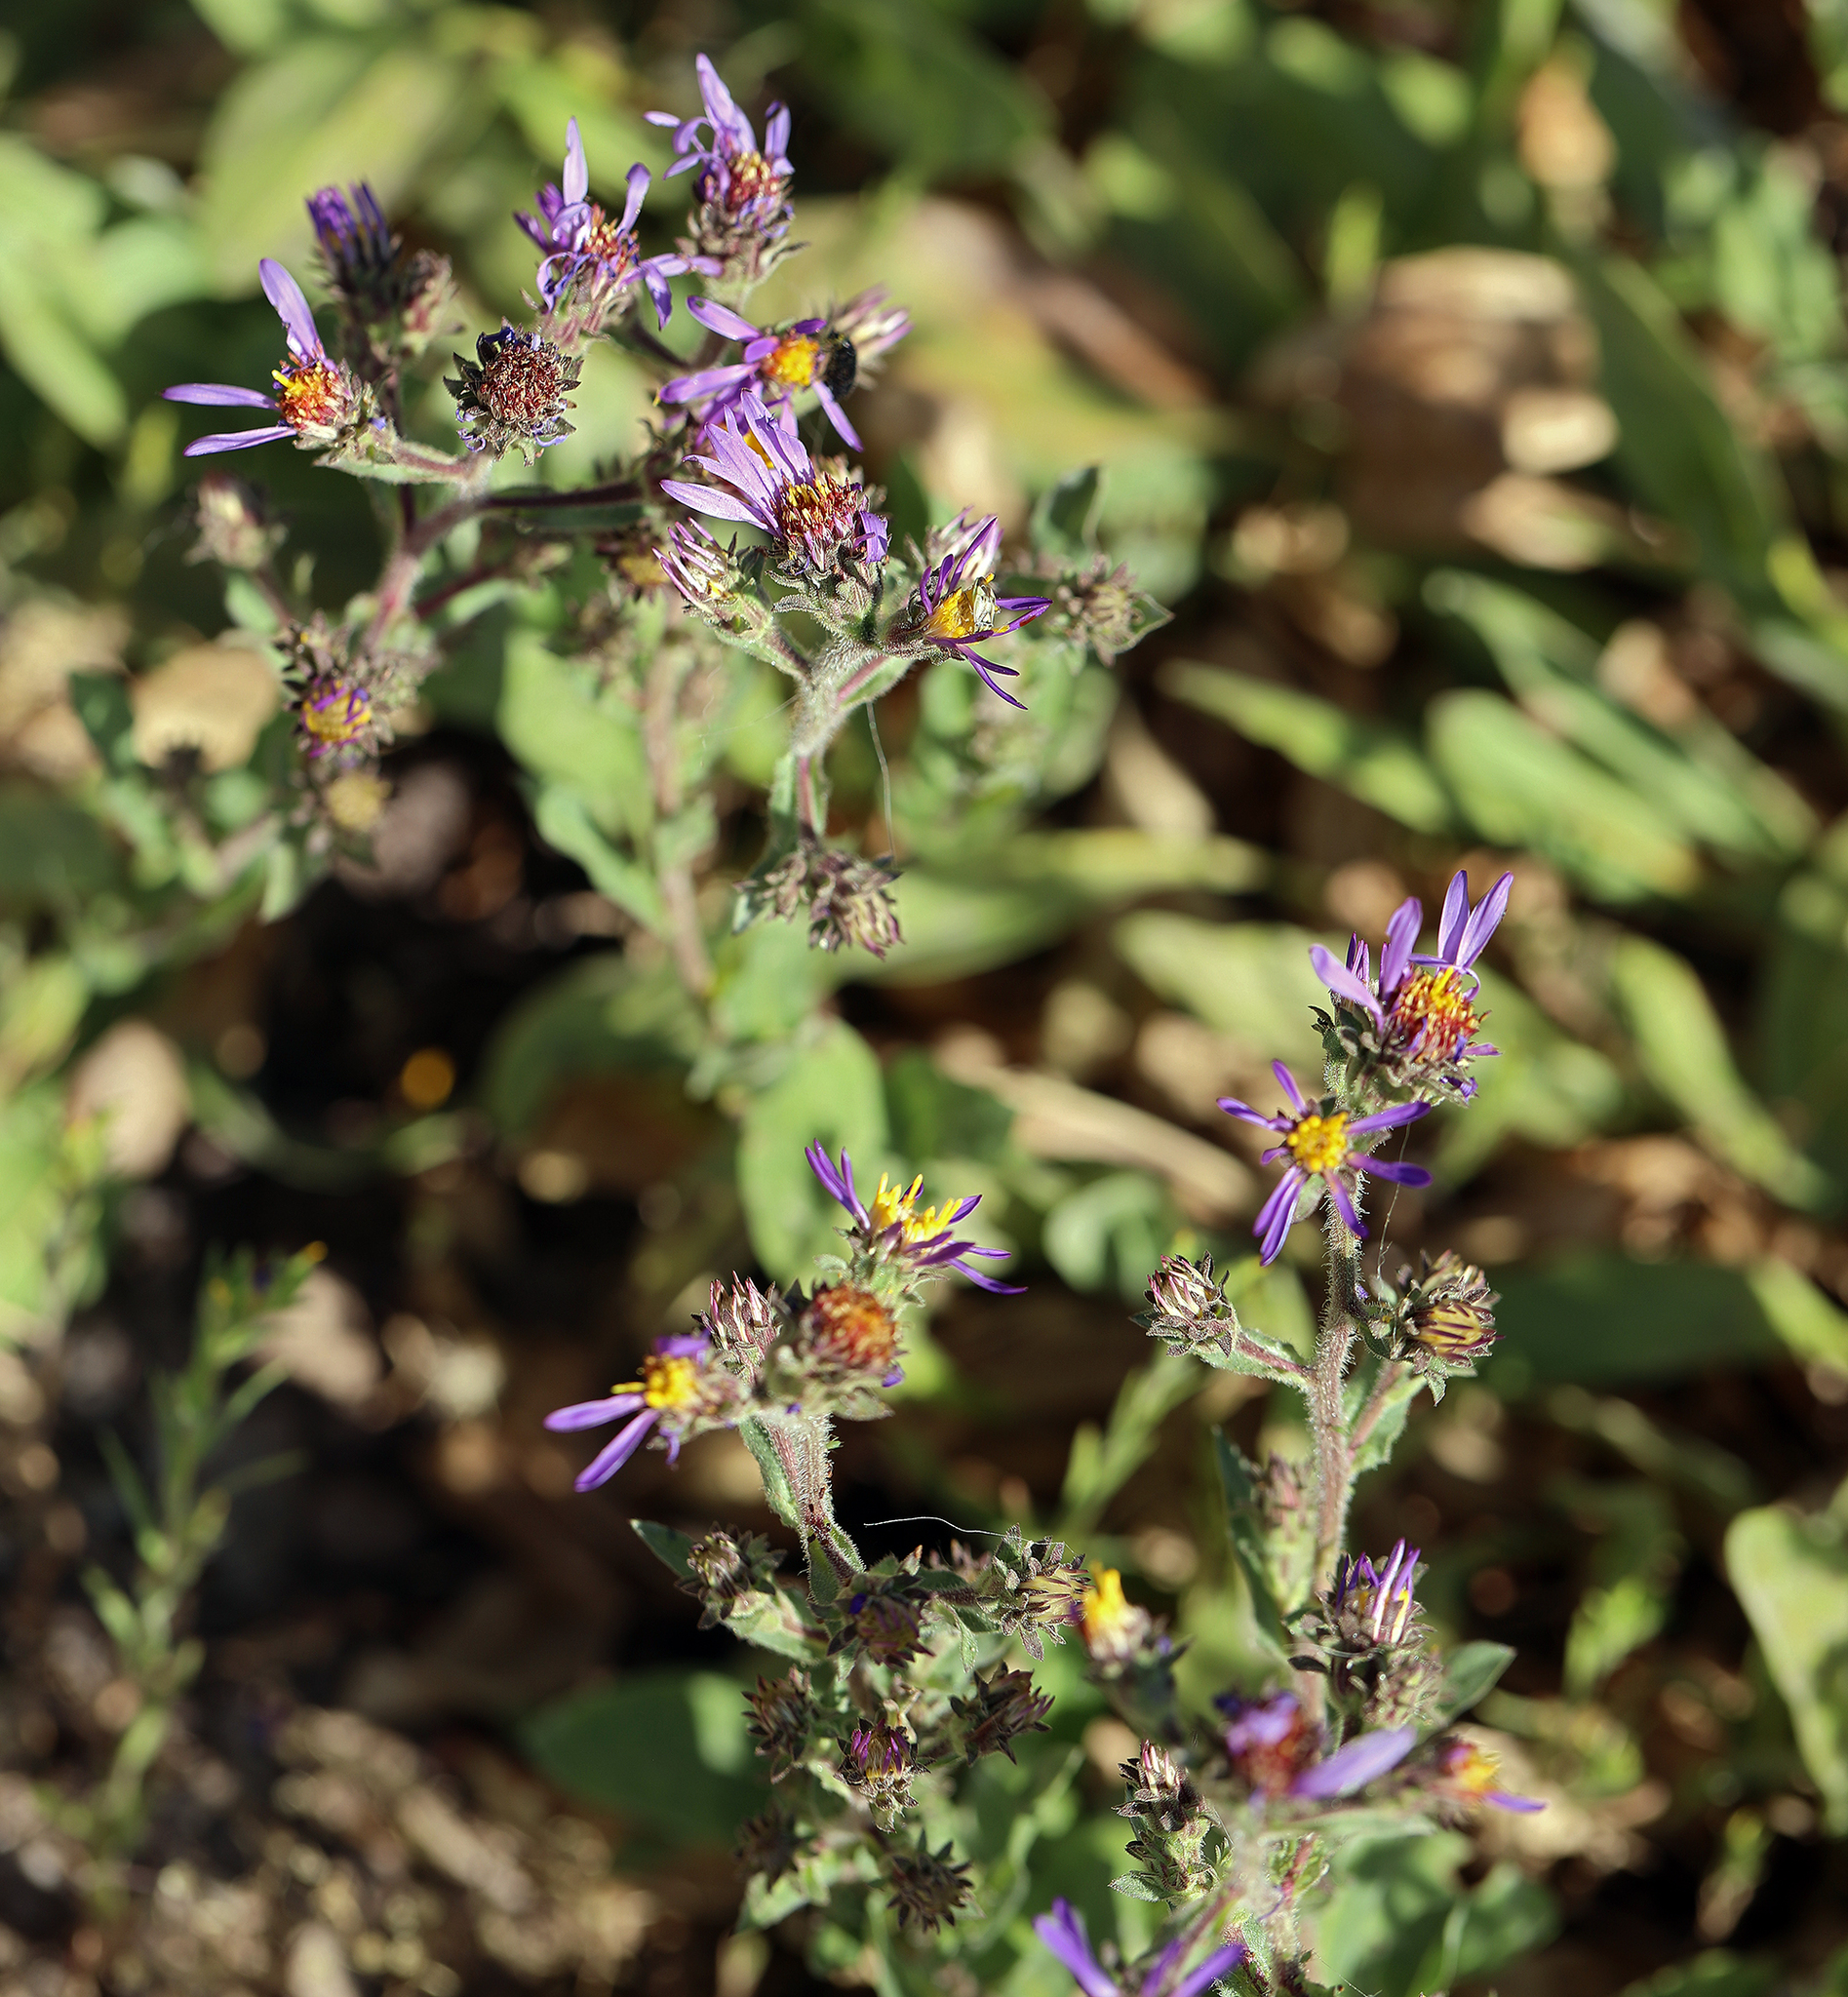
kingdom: Plantae
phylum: Tracheophyta
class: Magnoliopsida
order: Asterales
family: Asteraceae
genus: Eurybia
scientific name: Eurybia integrifolia
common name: Thick-stem aster
